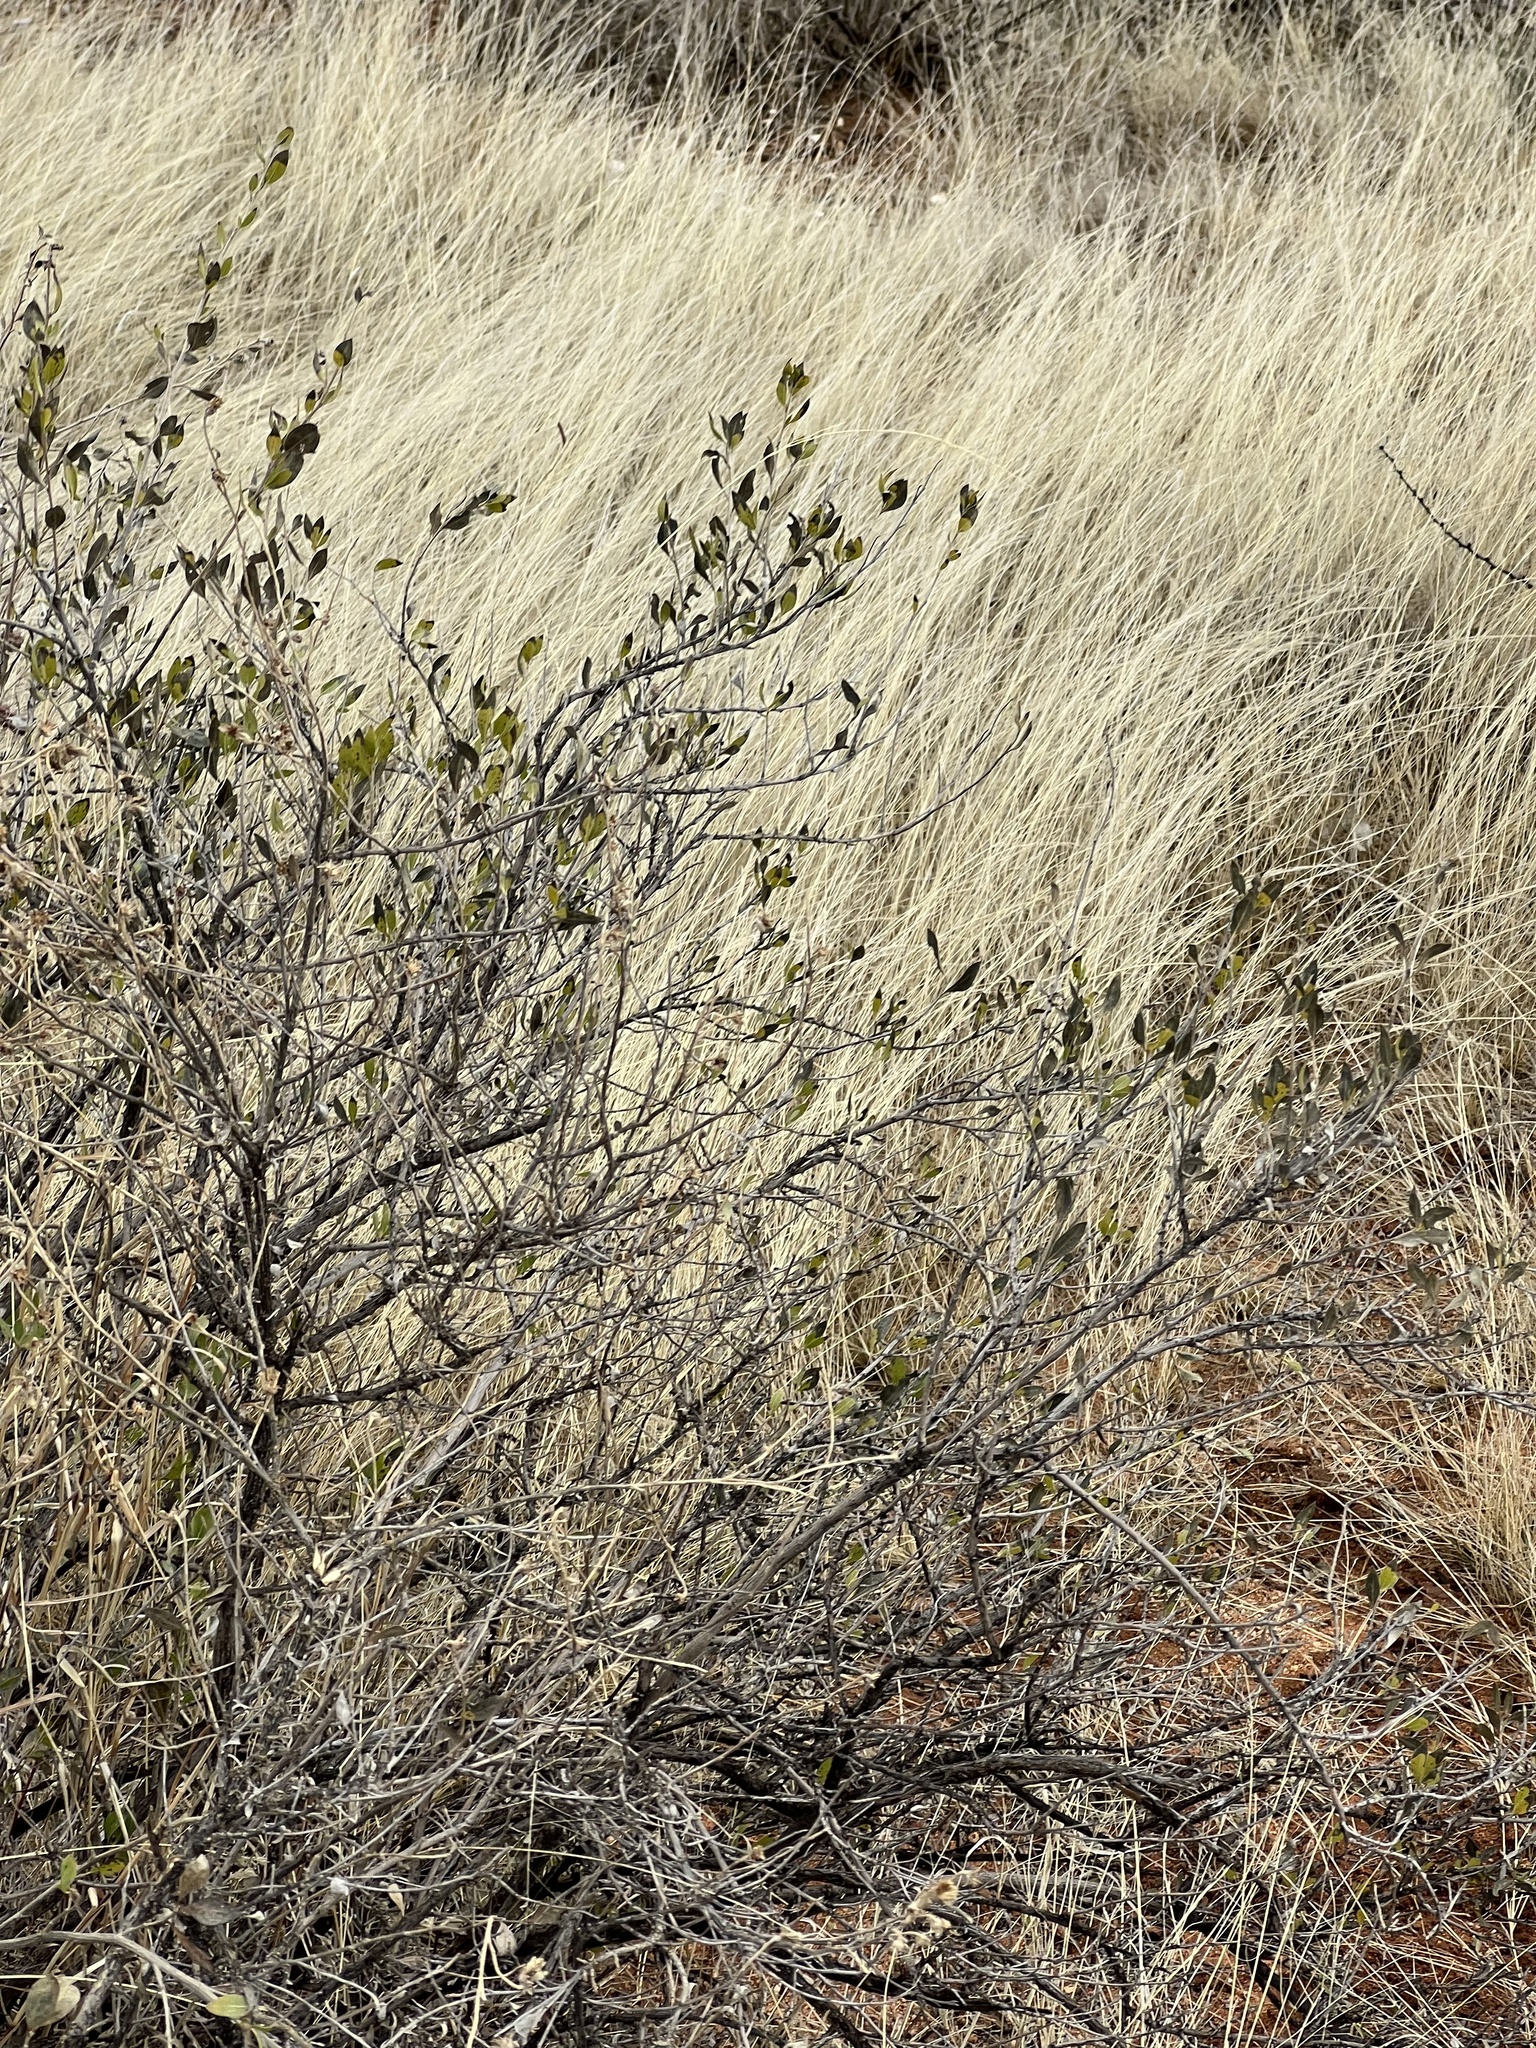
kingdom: Plantae
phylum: Tracheophyta
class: Magnoliopsida
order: Asterales
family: Asteraceae
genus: Flourensia
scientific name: Flourensia cernua
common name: Varnishbush
